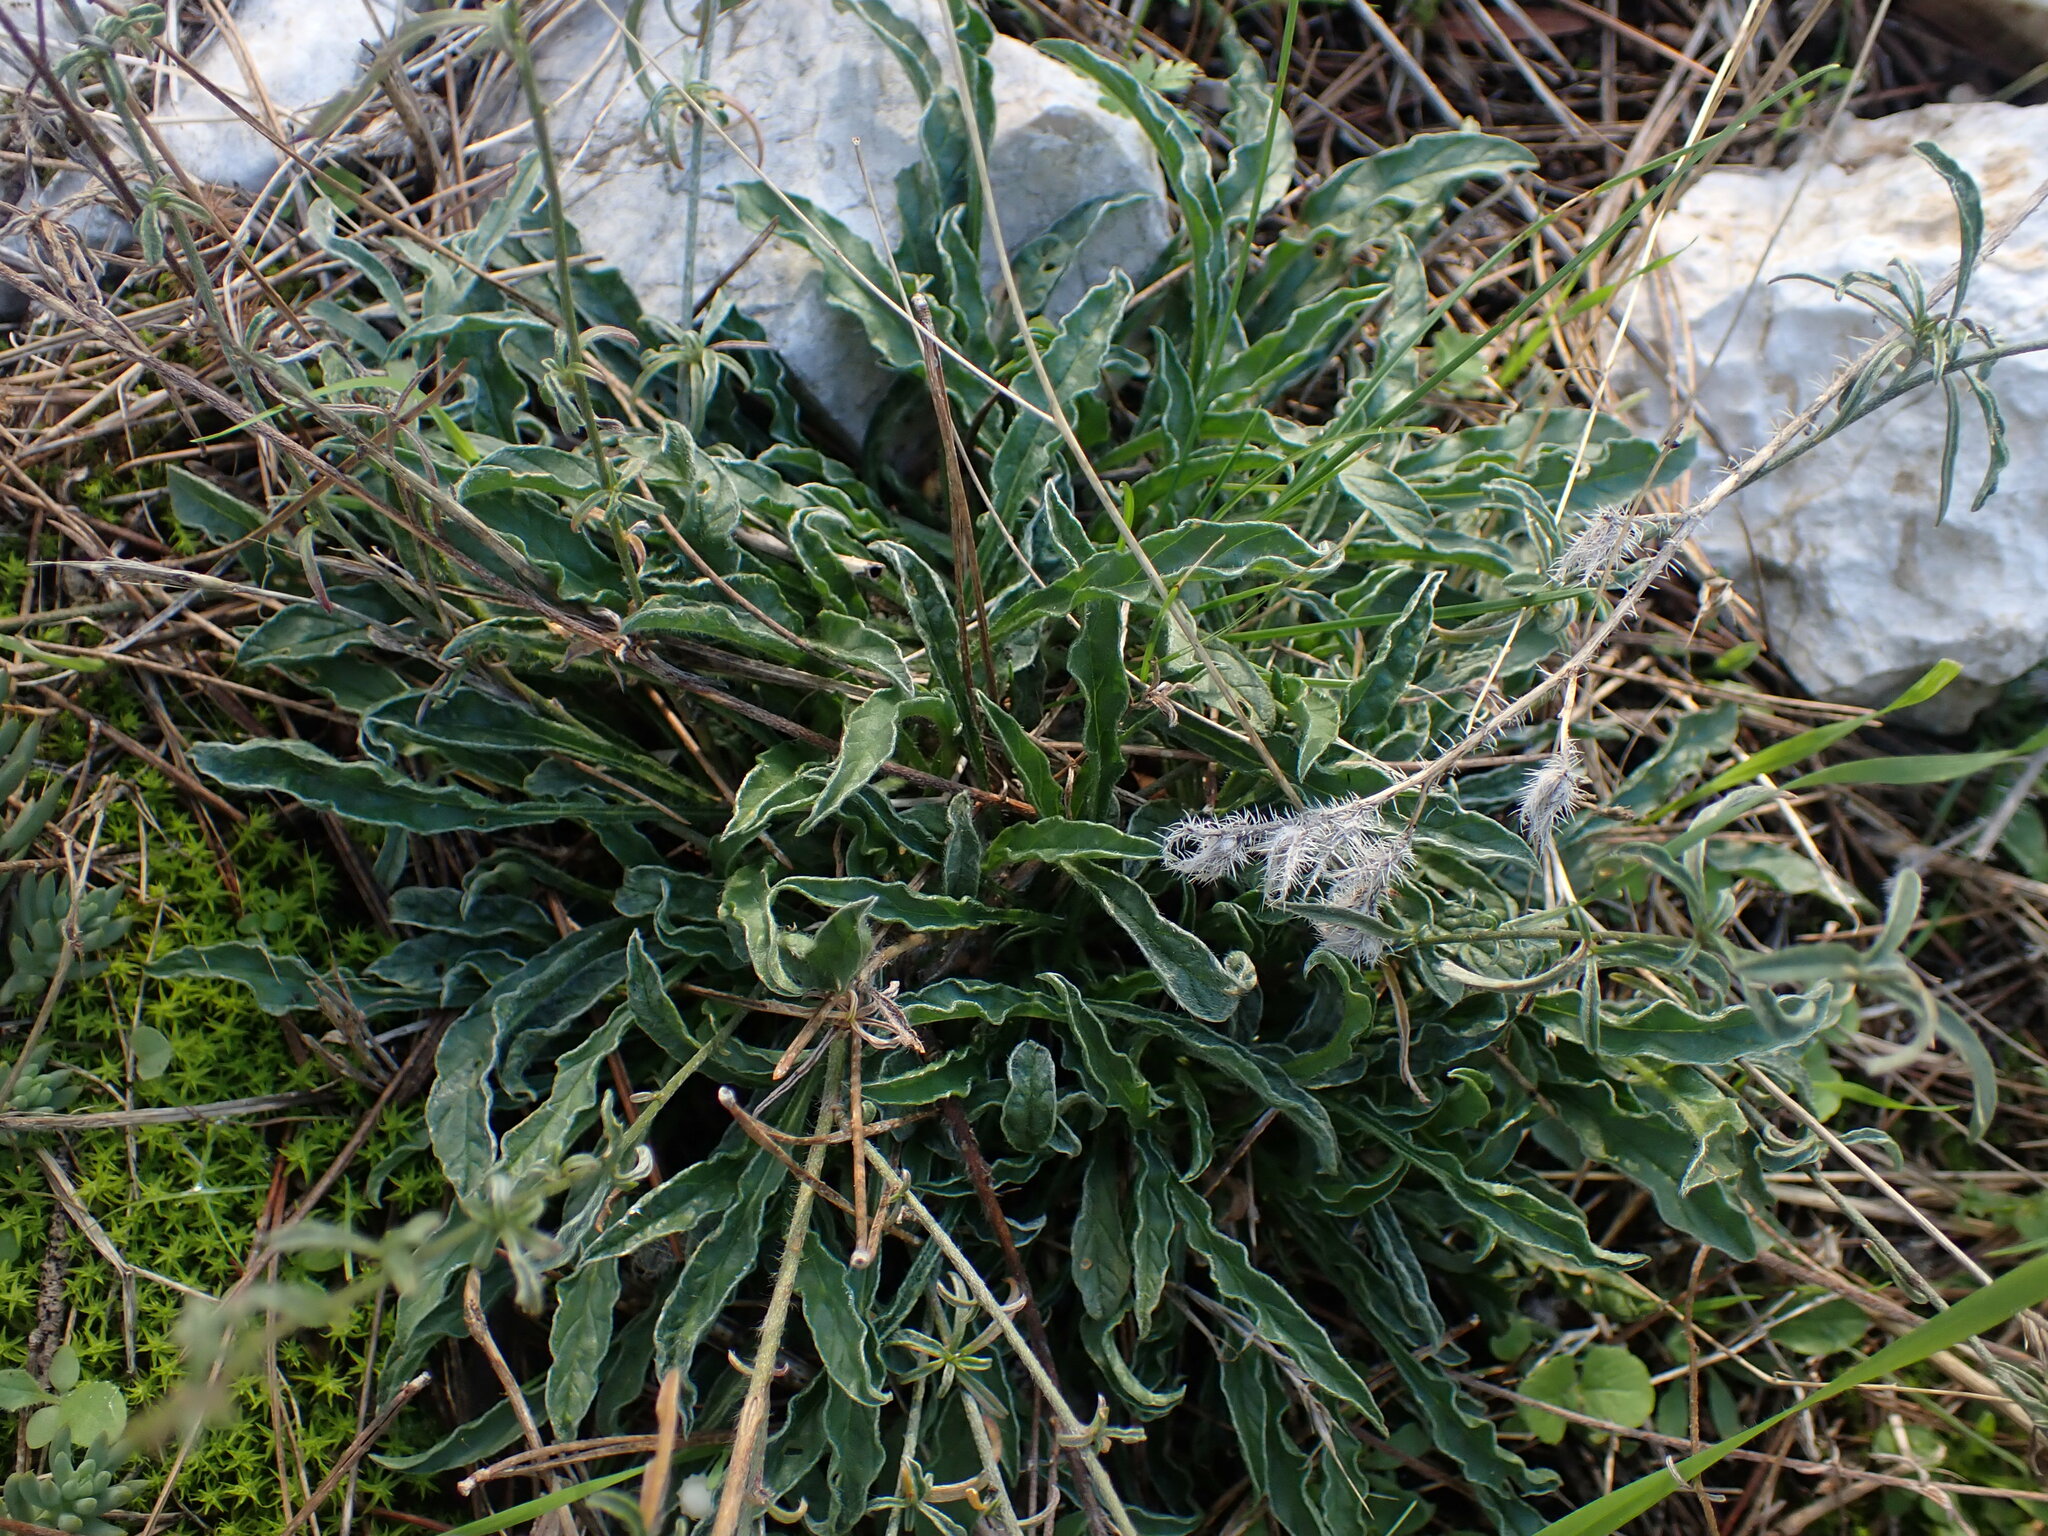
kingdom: Plantae
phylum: Tracheophyta
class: Magnoliopsida
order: Solanales
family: Convolvulaceae
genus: Convolvulus
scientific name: Convolvulus cantabrica
